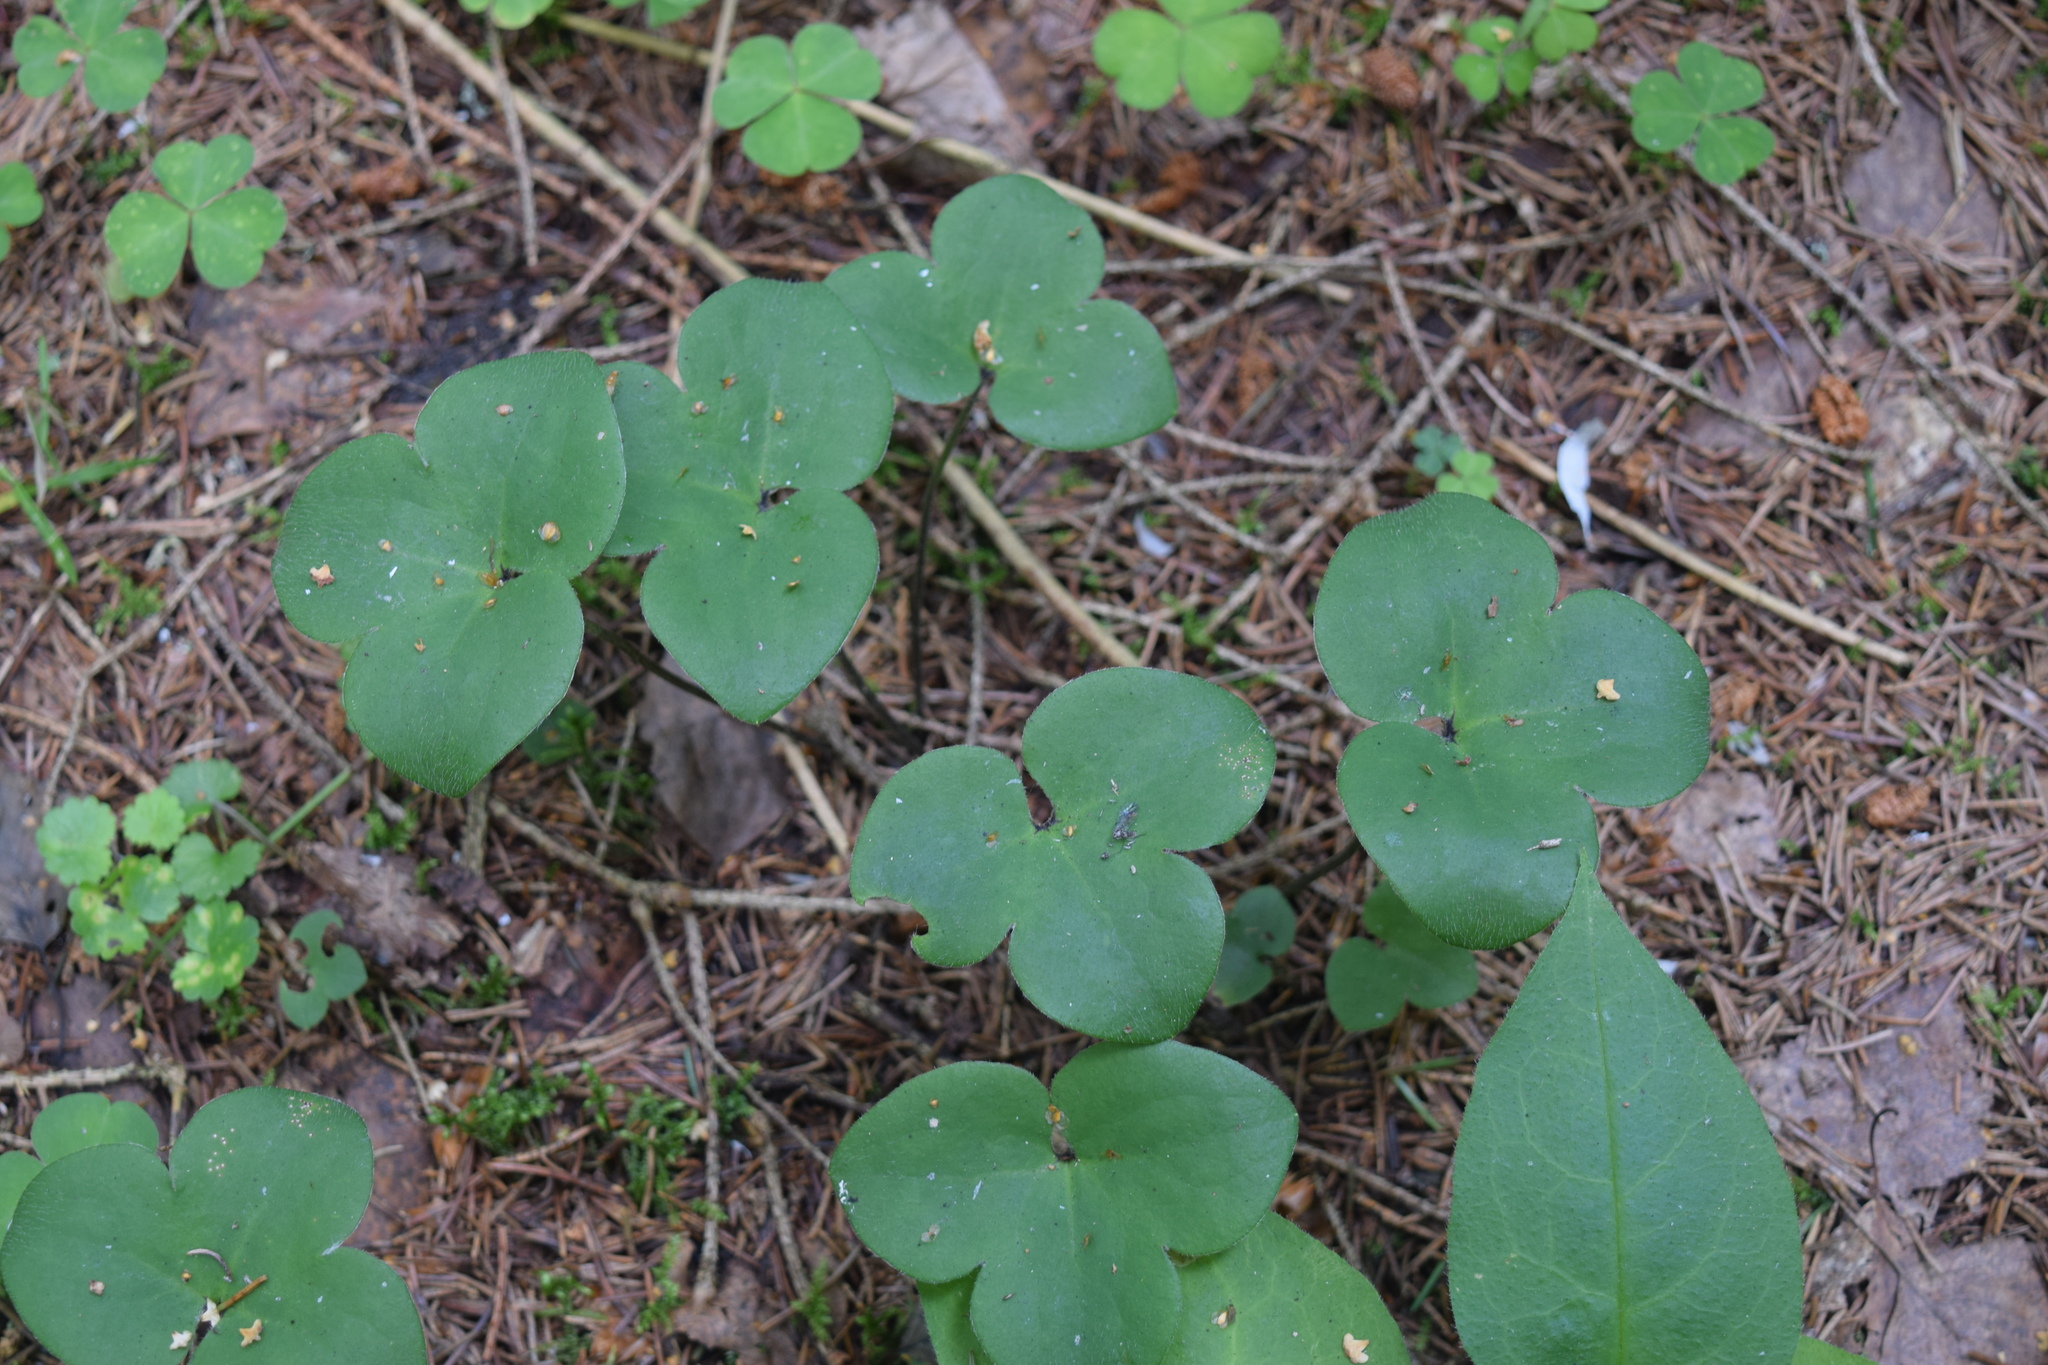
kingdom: Plantae
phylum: Tracheophyta
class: Magnoliopsida
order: Ranunculales
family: Ranunculaceae
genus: Hepatica
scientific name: Hepatica nobilis
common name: Liverleaf
